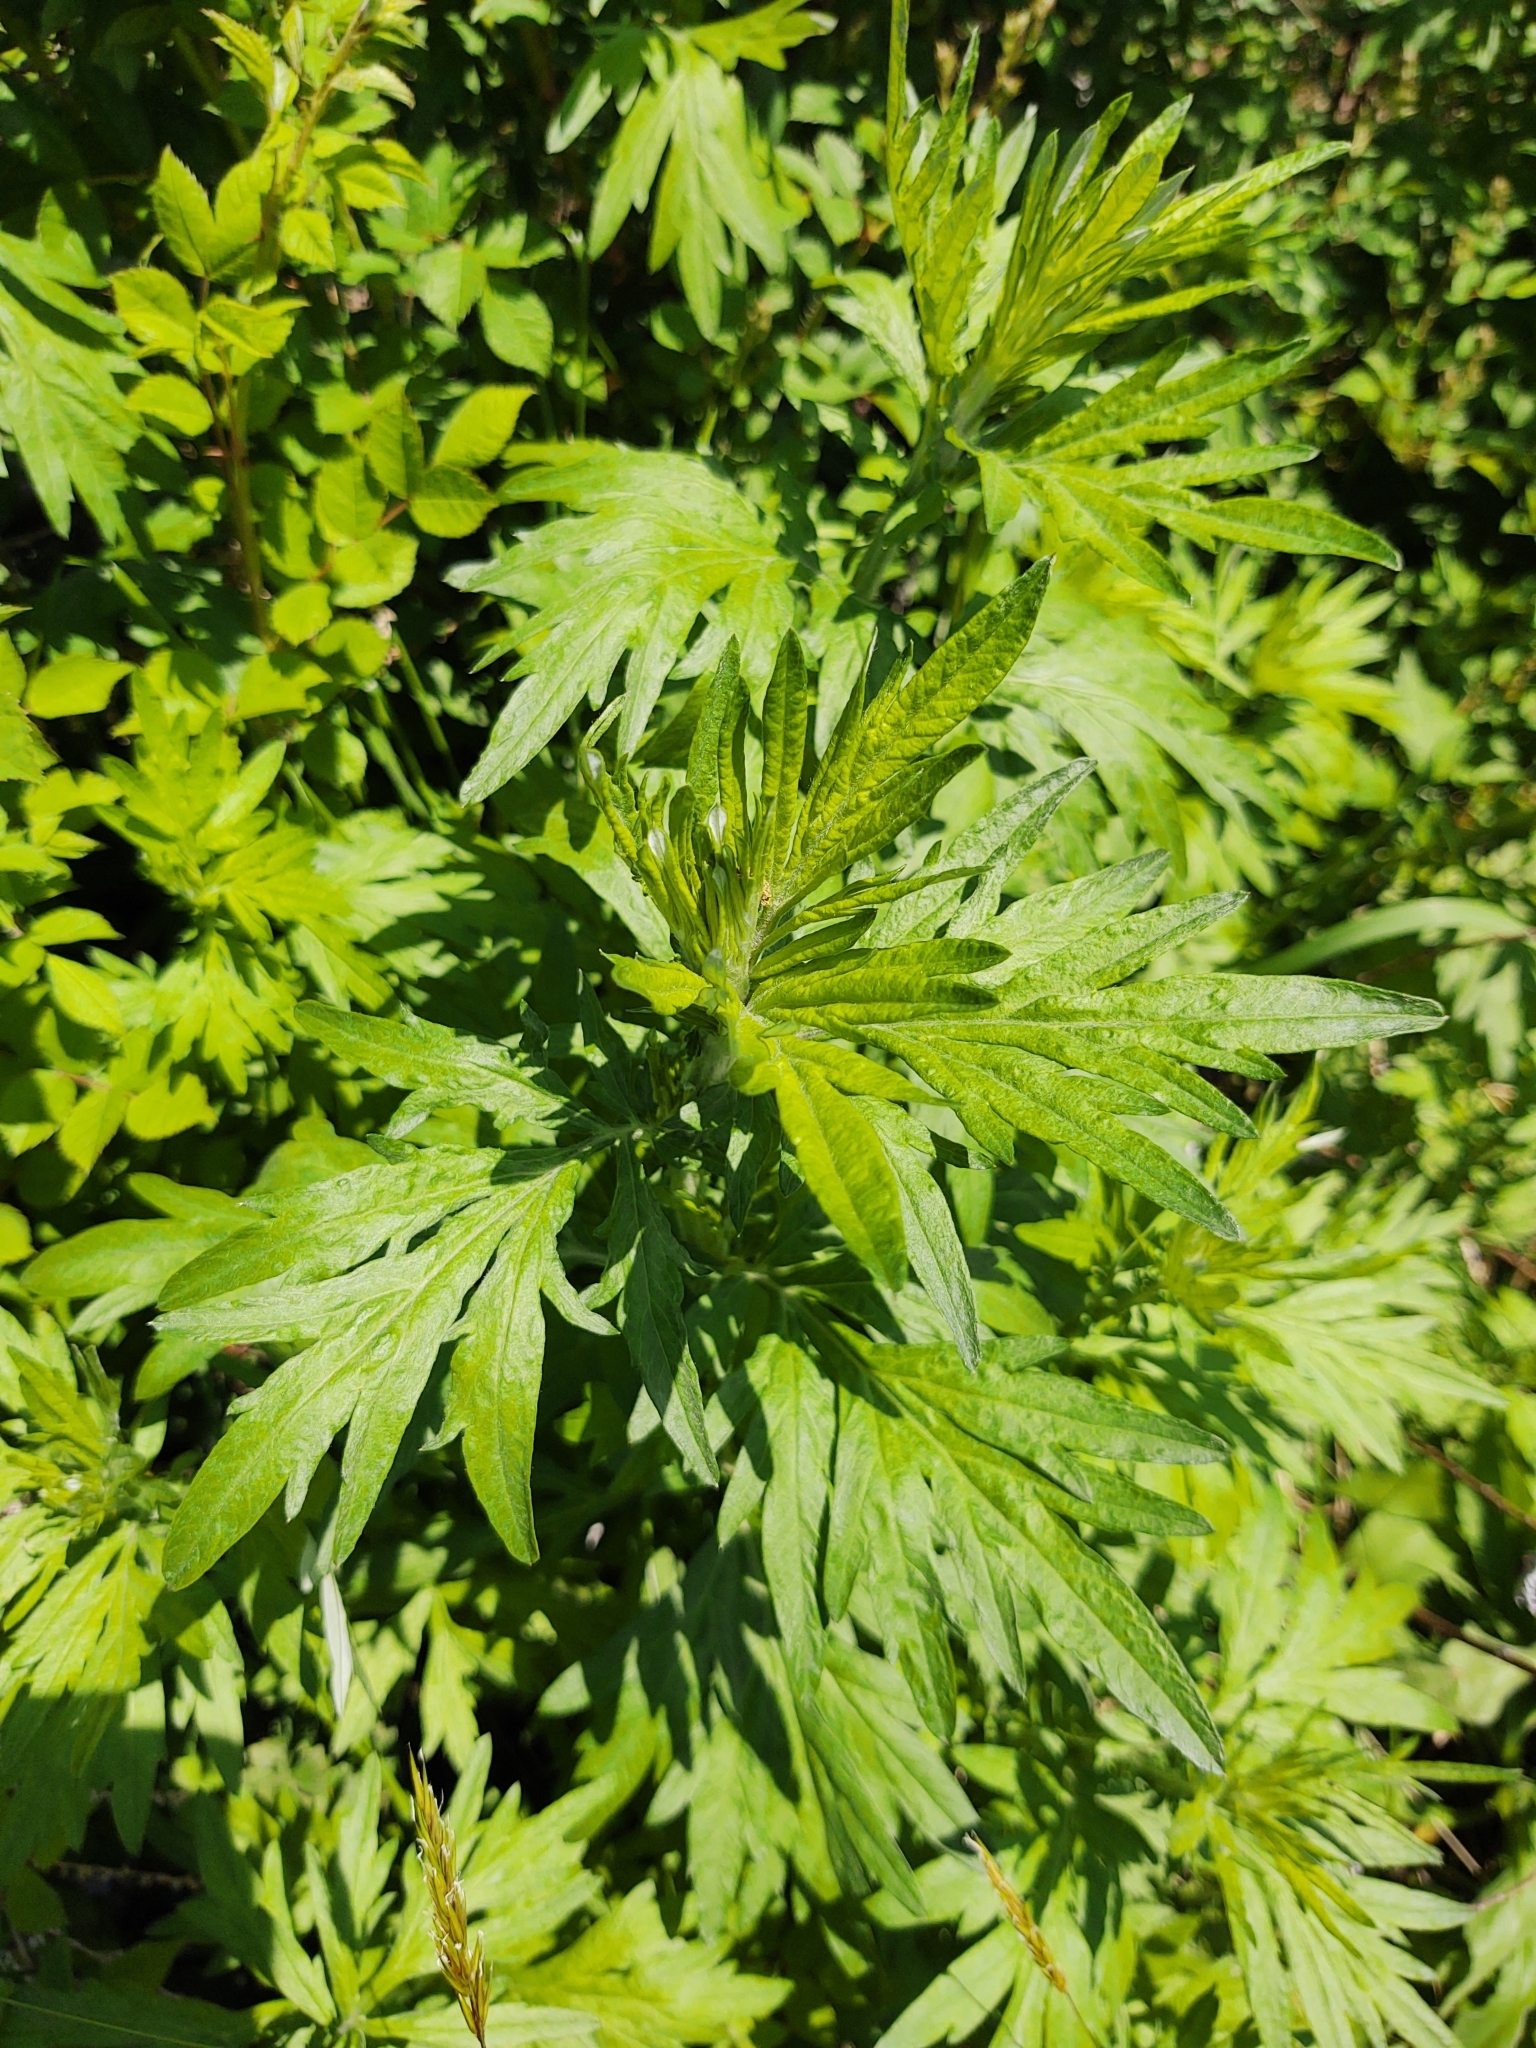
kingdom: Plantae
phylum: Tracheophyta
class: Magnoliopsida
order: Asterales
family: Asteraceae
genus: Artemisia
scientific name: Artemisia vulgaris
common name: Mugwort
